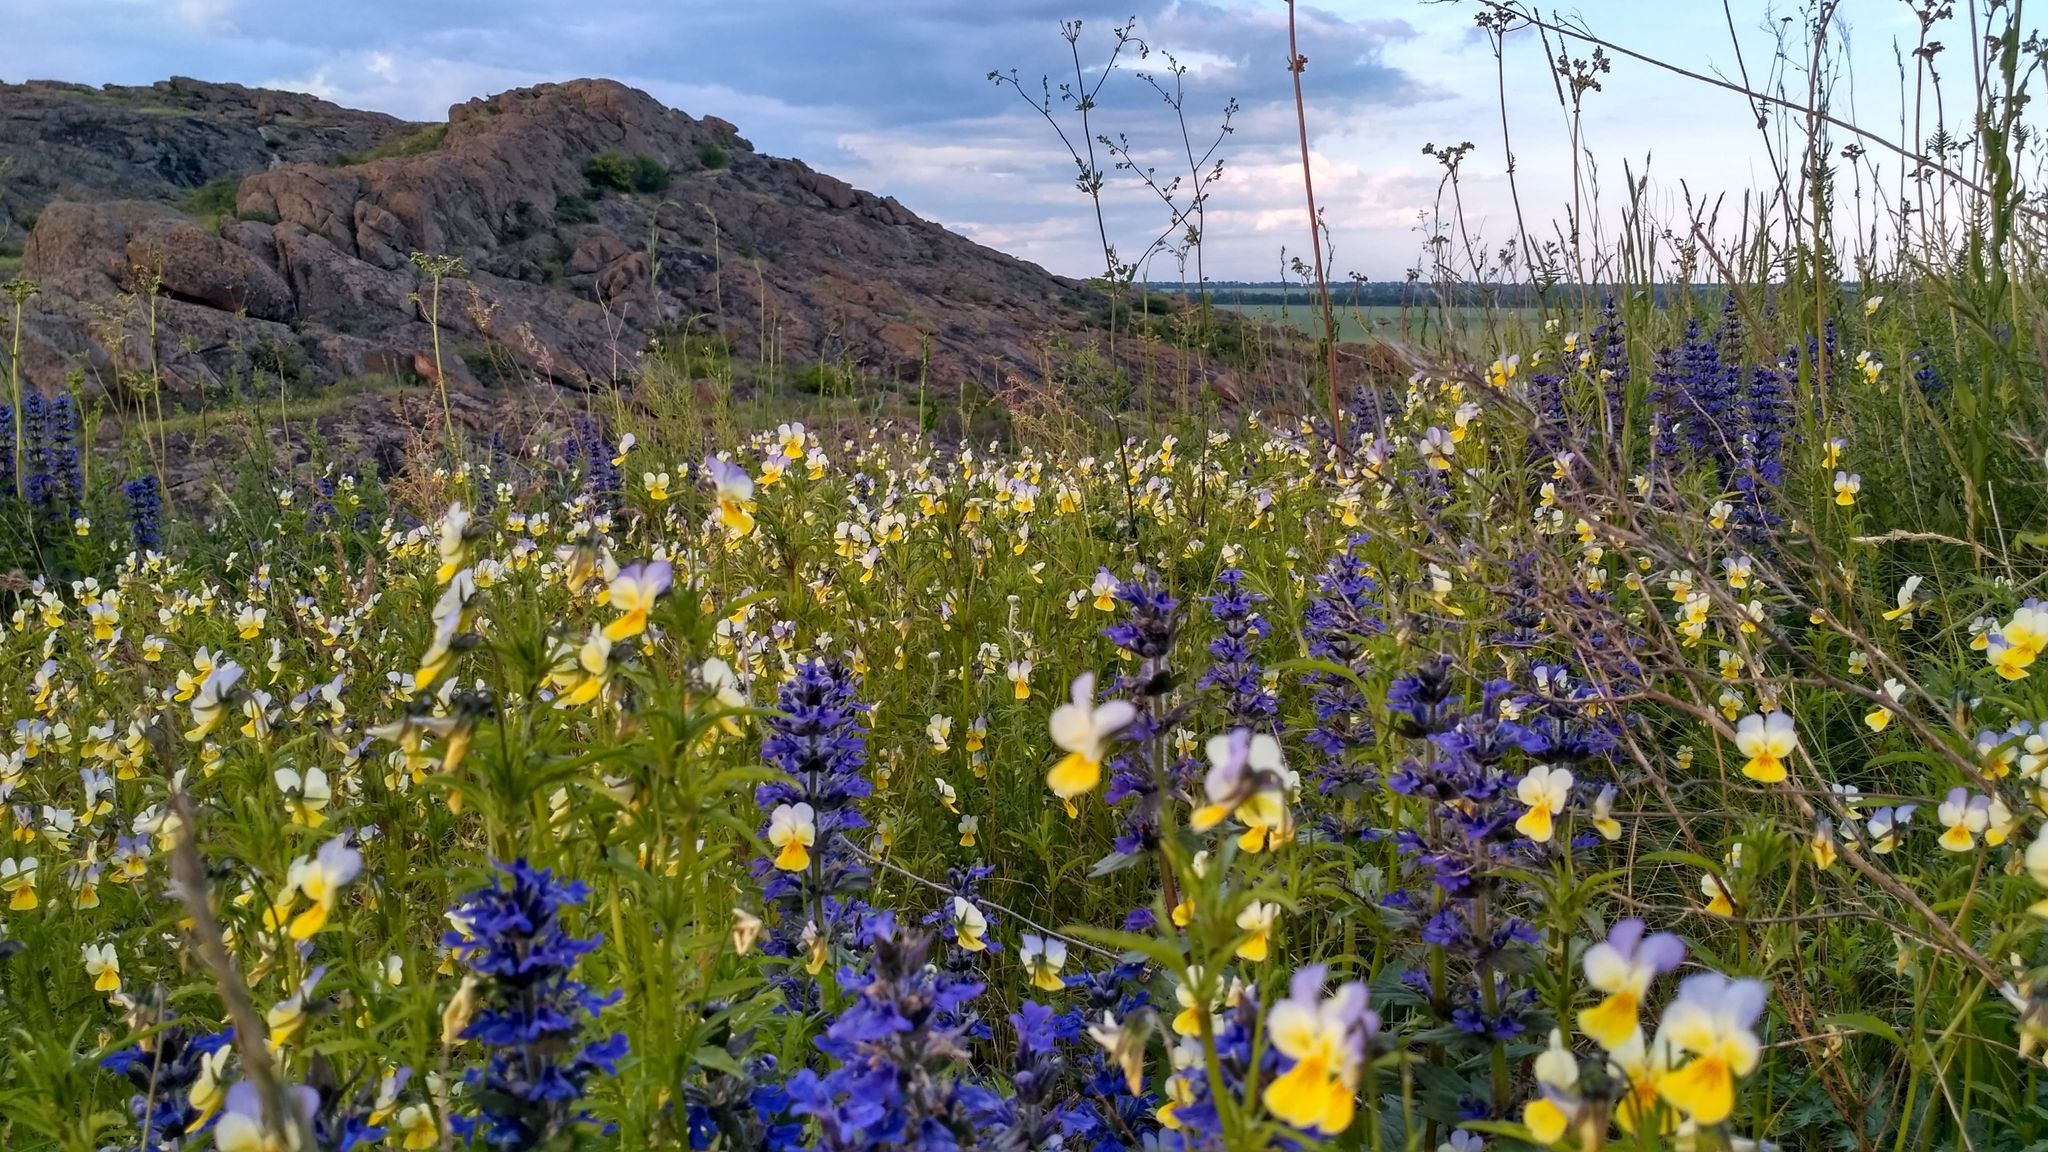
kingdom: Plantae
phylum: Tracheophyta
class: Magnoliopsida
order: Malpighiales
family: Violaceae
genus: Viola
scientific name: Viola tricolor
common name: Pansy
